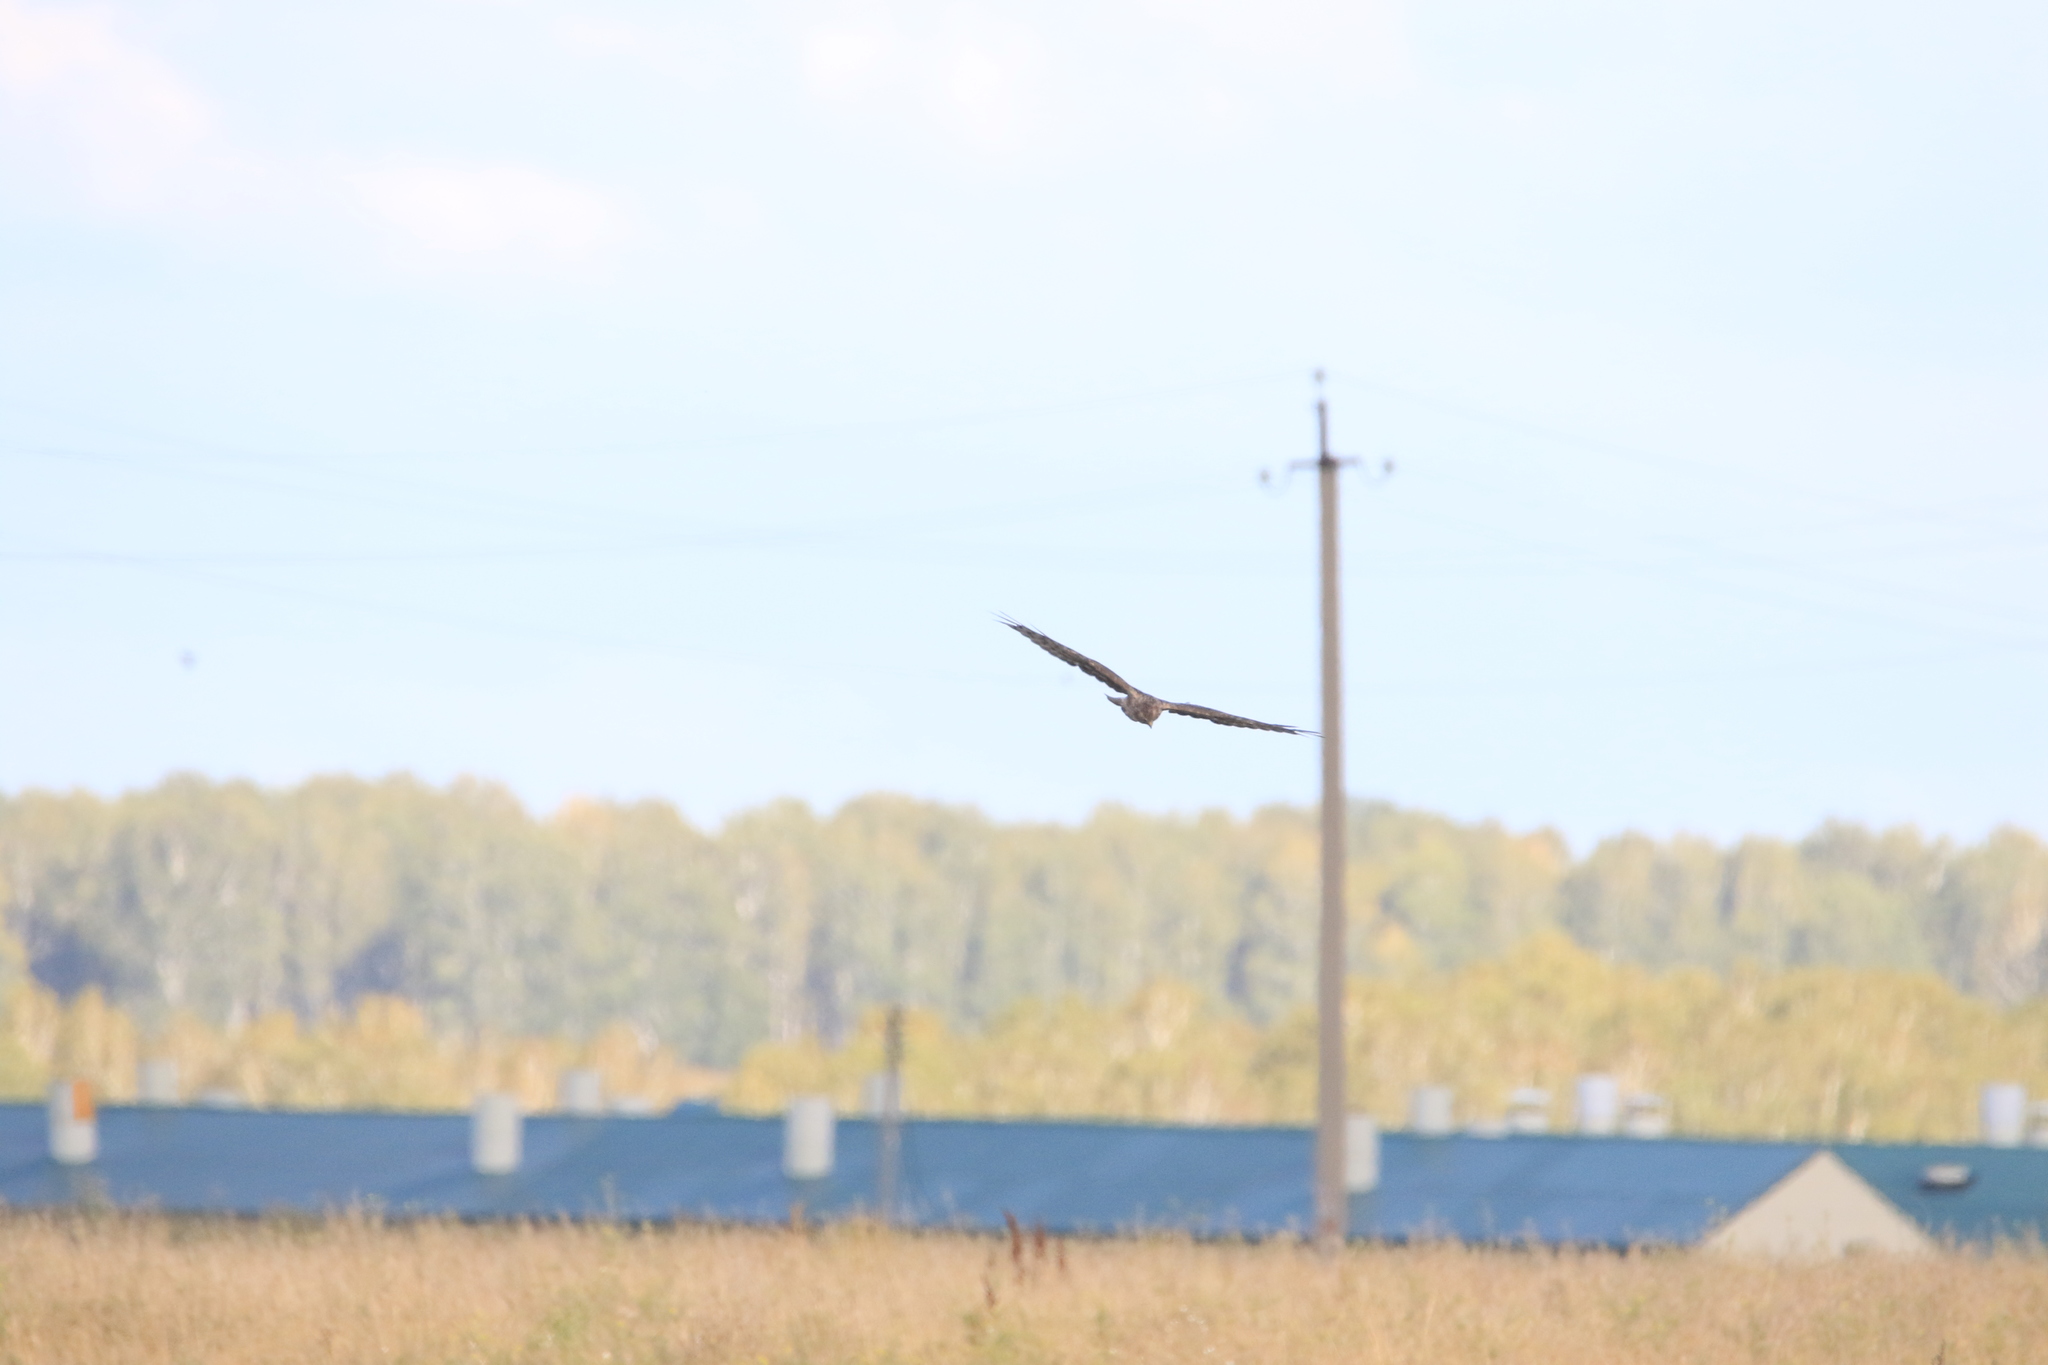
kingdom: Animalia
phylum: Chordata
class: Aves
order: Accipitriformes
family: Accipitridae
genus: Circus
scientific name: Circus cyaneus
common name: Hen harrier
